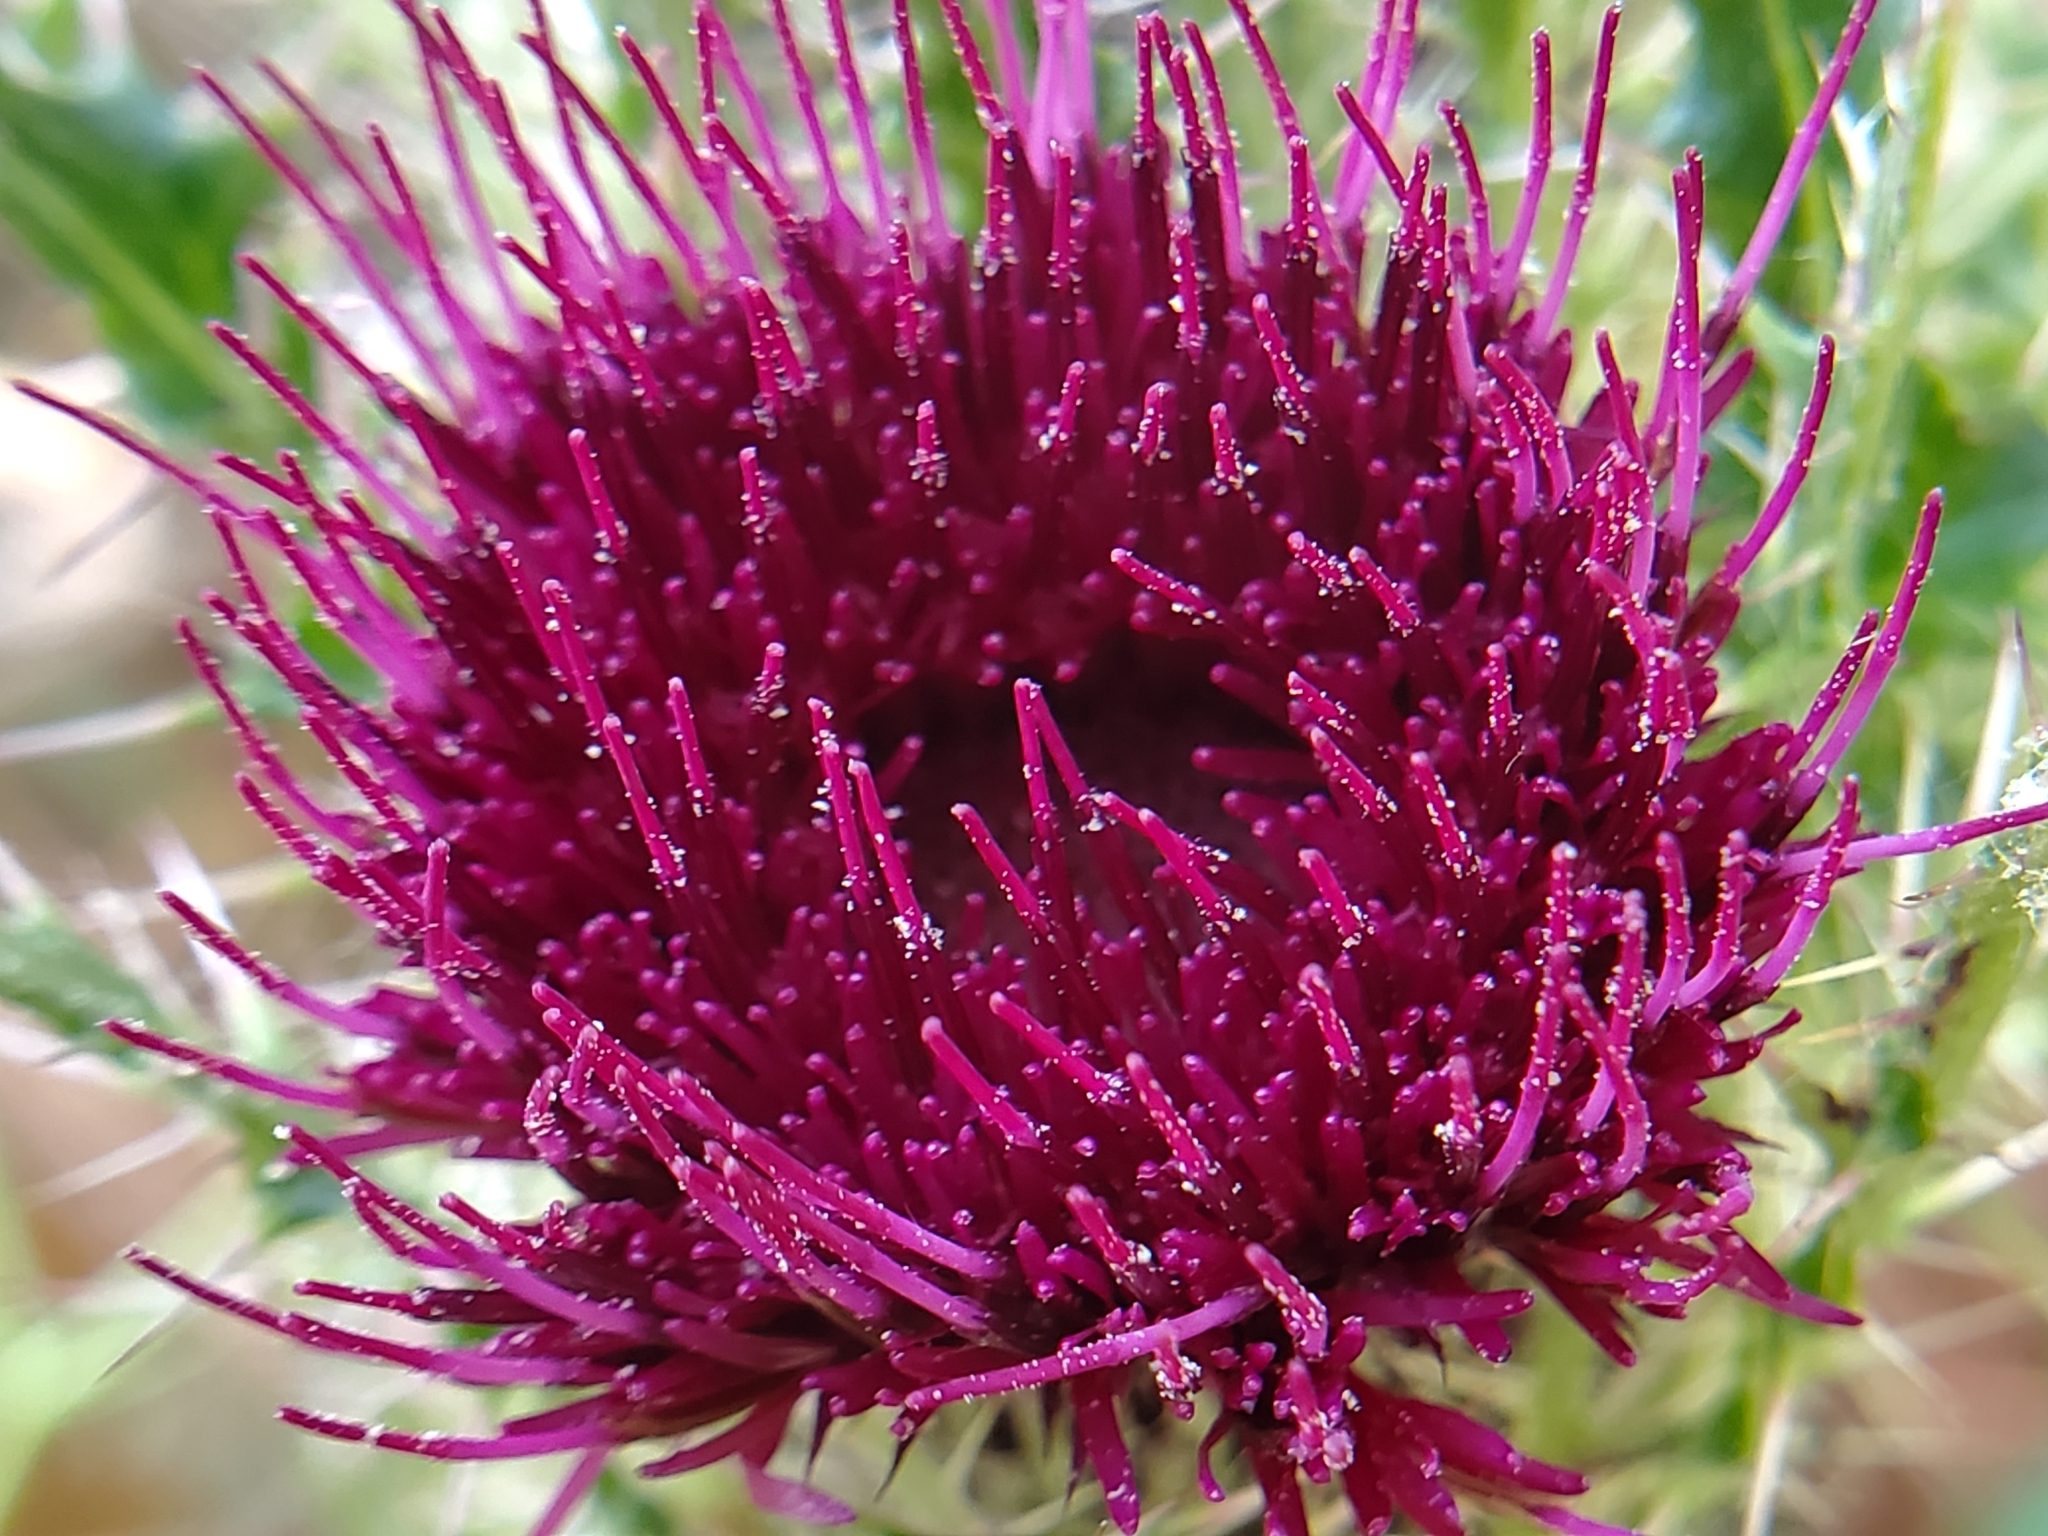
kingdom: Plantae
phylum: Tracheophyta
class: Magnoliopsida
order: Asterales
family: Asteraceae
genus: Cirsium
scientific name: Cirsium horridulum
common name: Bristly thistle
